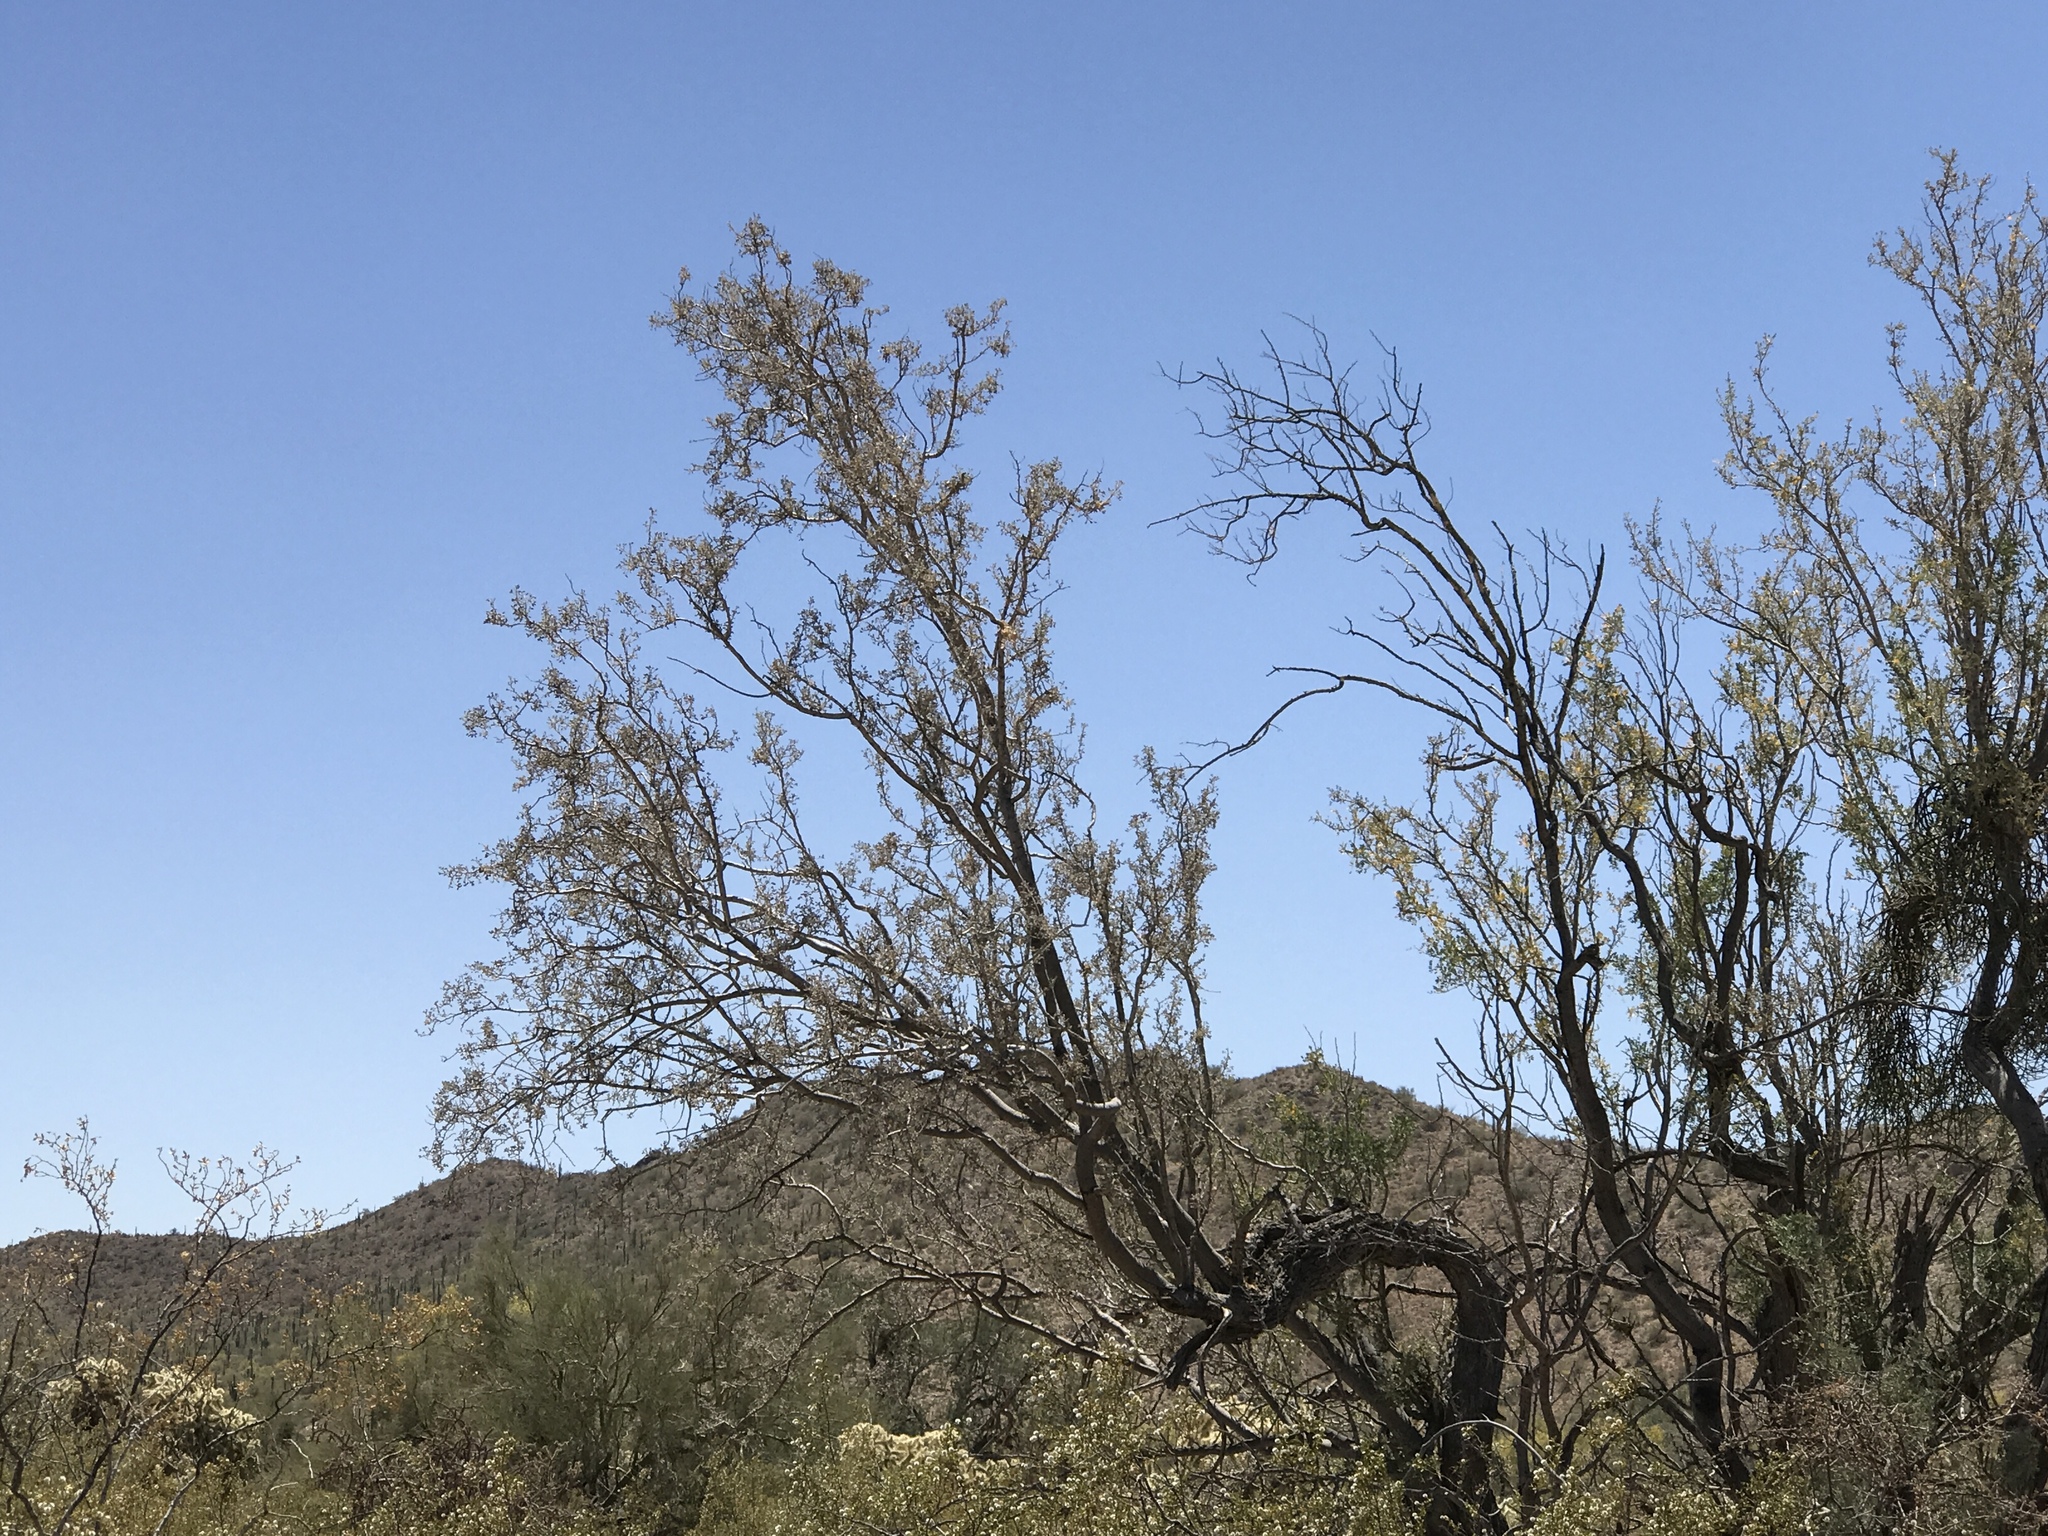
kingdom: Plantae
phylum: Tracheophyta
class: Magnoliopsida
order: Fabales
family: Fabaceae
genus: Olneya
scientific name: Olneya tesota
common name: Desert ironwood
